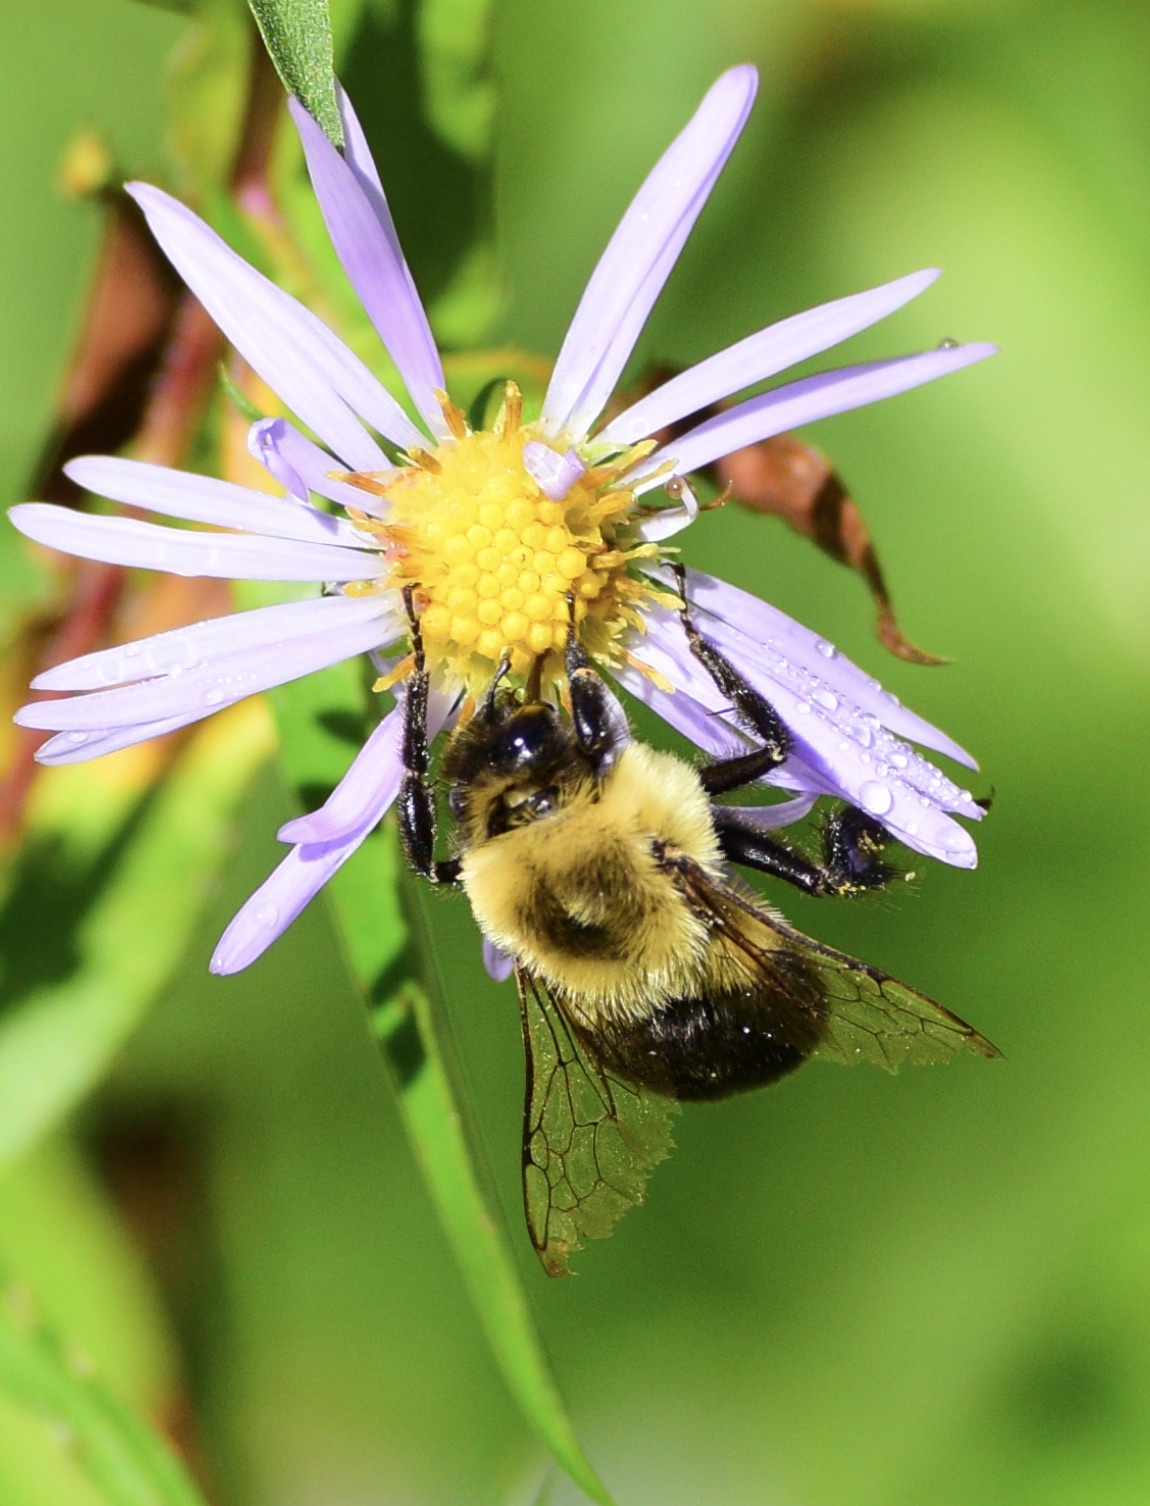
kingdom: Animalia
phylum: Arthropoda
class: Insecta
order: Hymenoptera
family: Apidae
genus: Bombus
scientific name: Bombus impatiens
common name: Common eastern bumble bee
